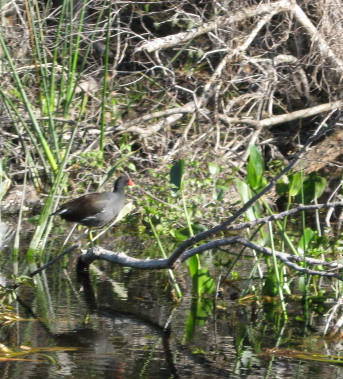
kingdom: Animalia
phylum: Chordata
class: Aves
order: Gruiformes
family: Rallidae
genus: Gallinula
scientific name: Gallinula chloropus
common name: Common moorhen
